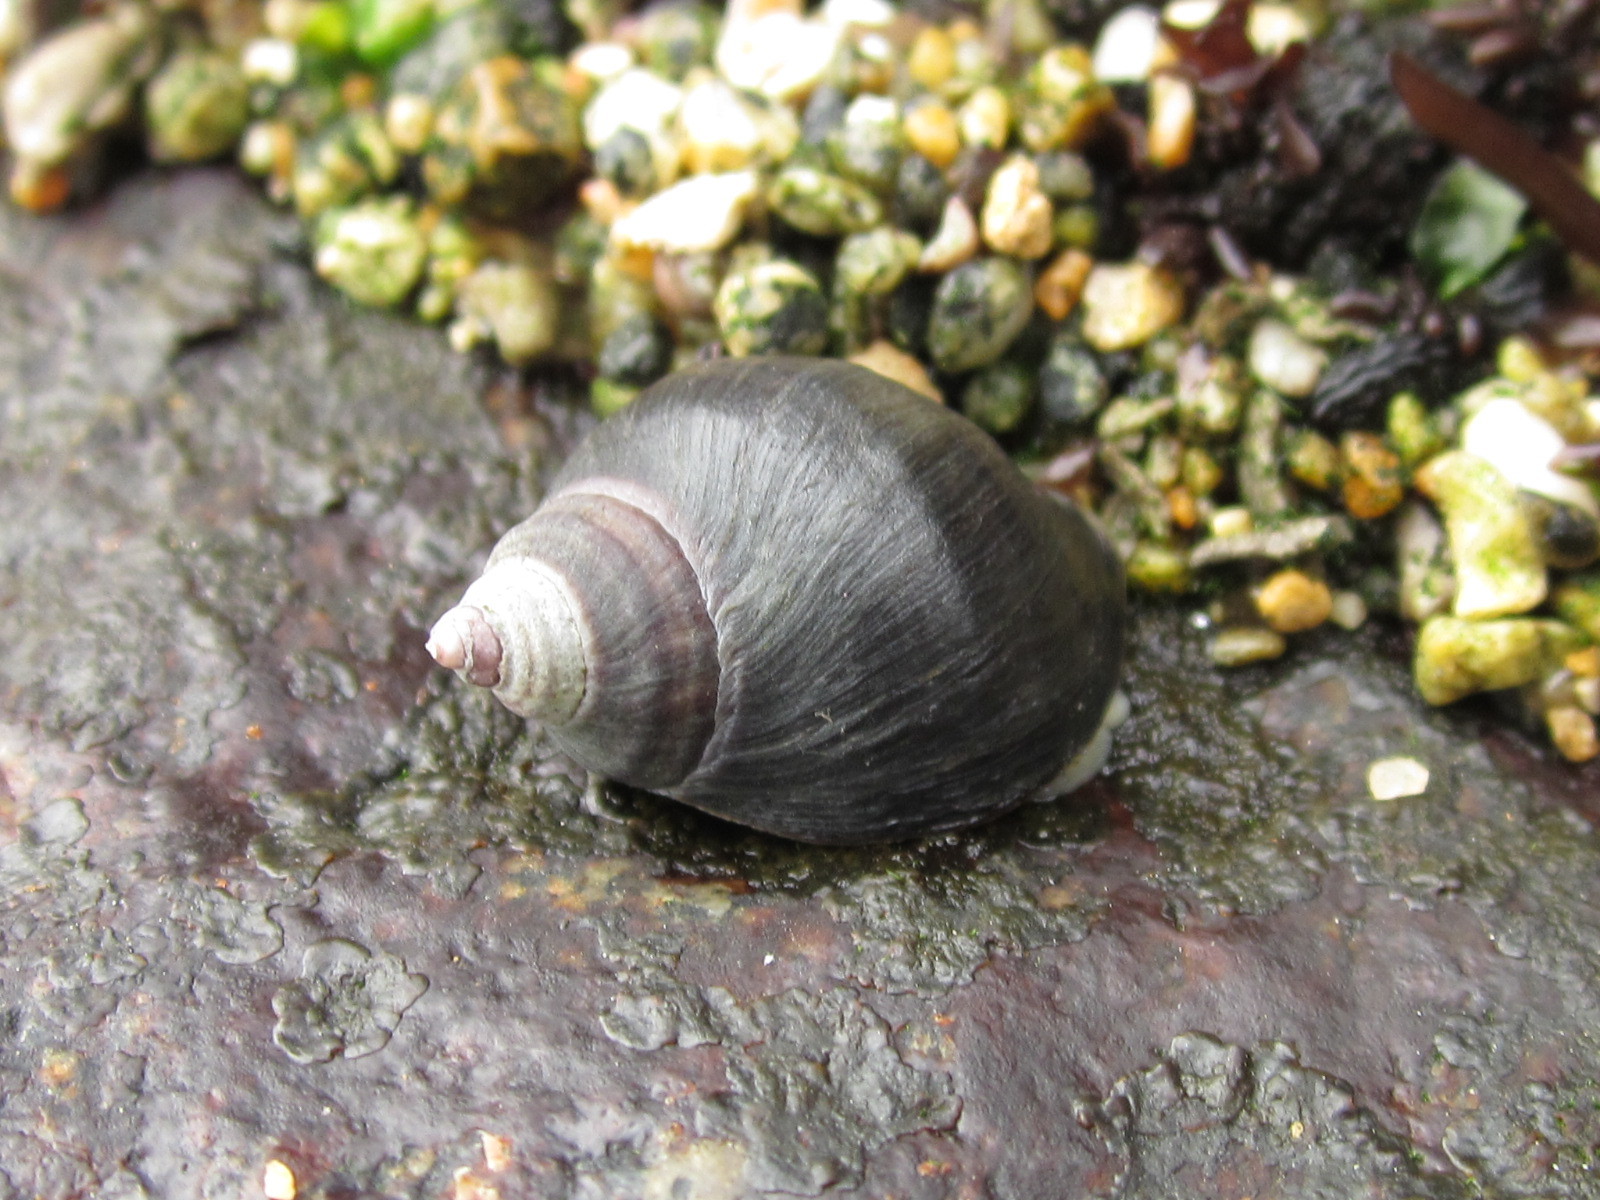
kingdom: Animalia
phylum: Mollusca
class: Gastropoda
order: Neogastropoda
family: Muricidae
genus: Acanthina
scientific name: Acanthina monodon
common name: One-toothed thais
